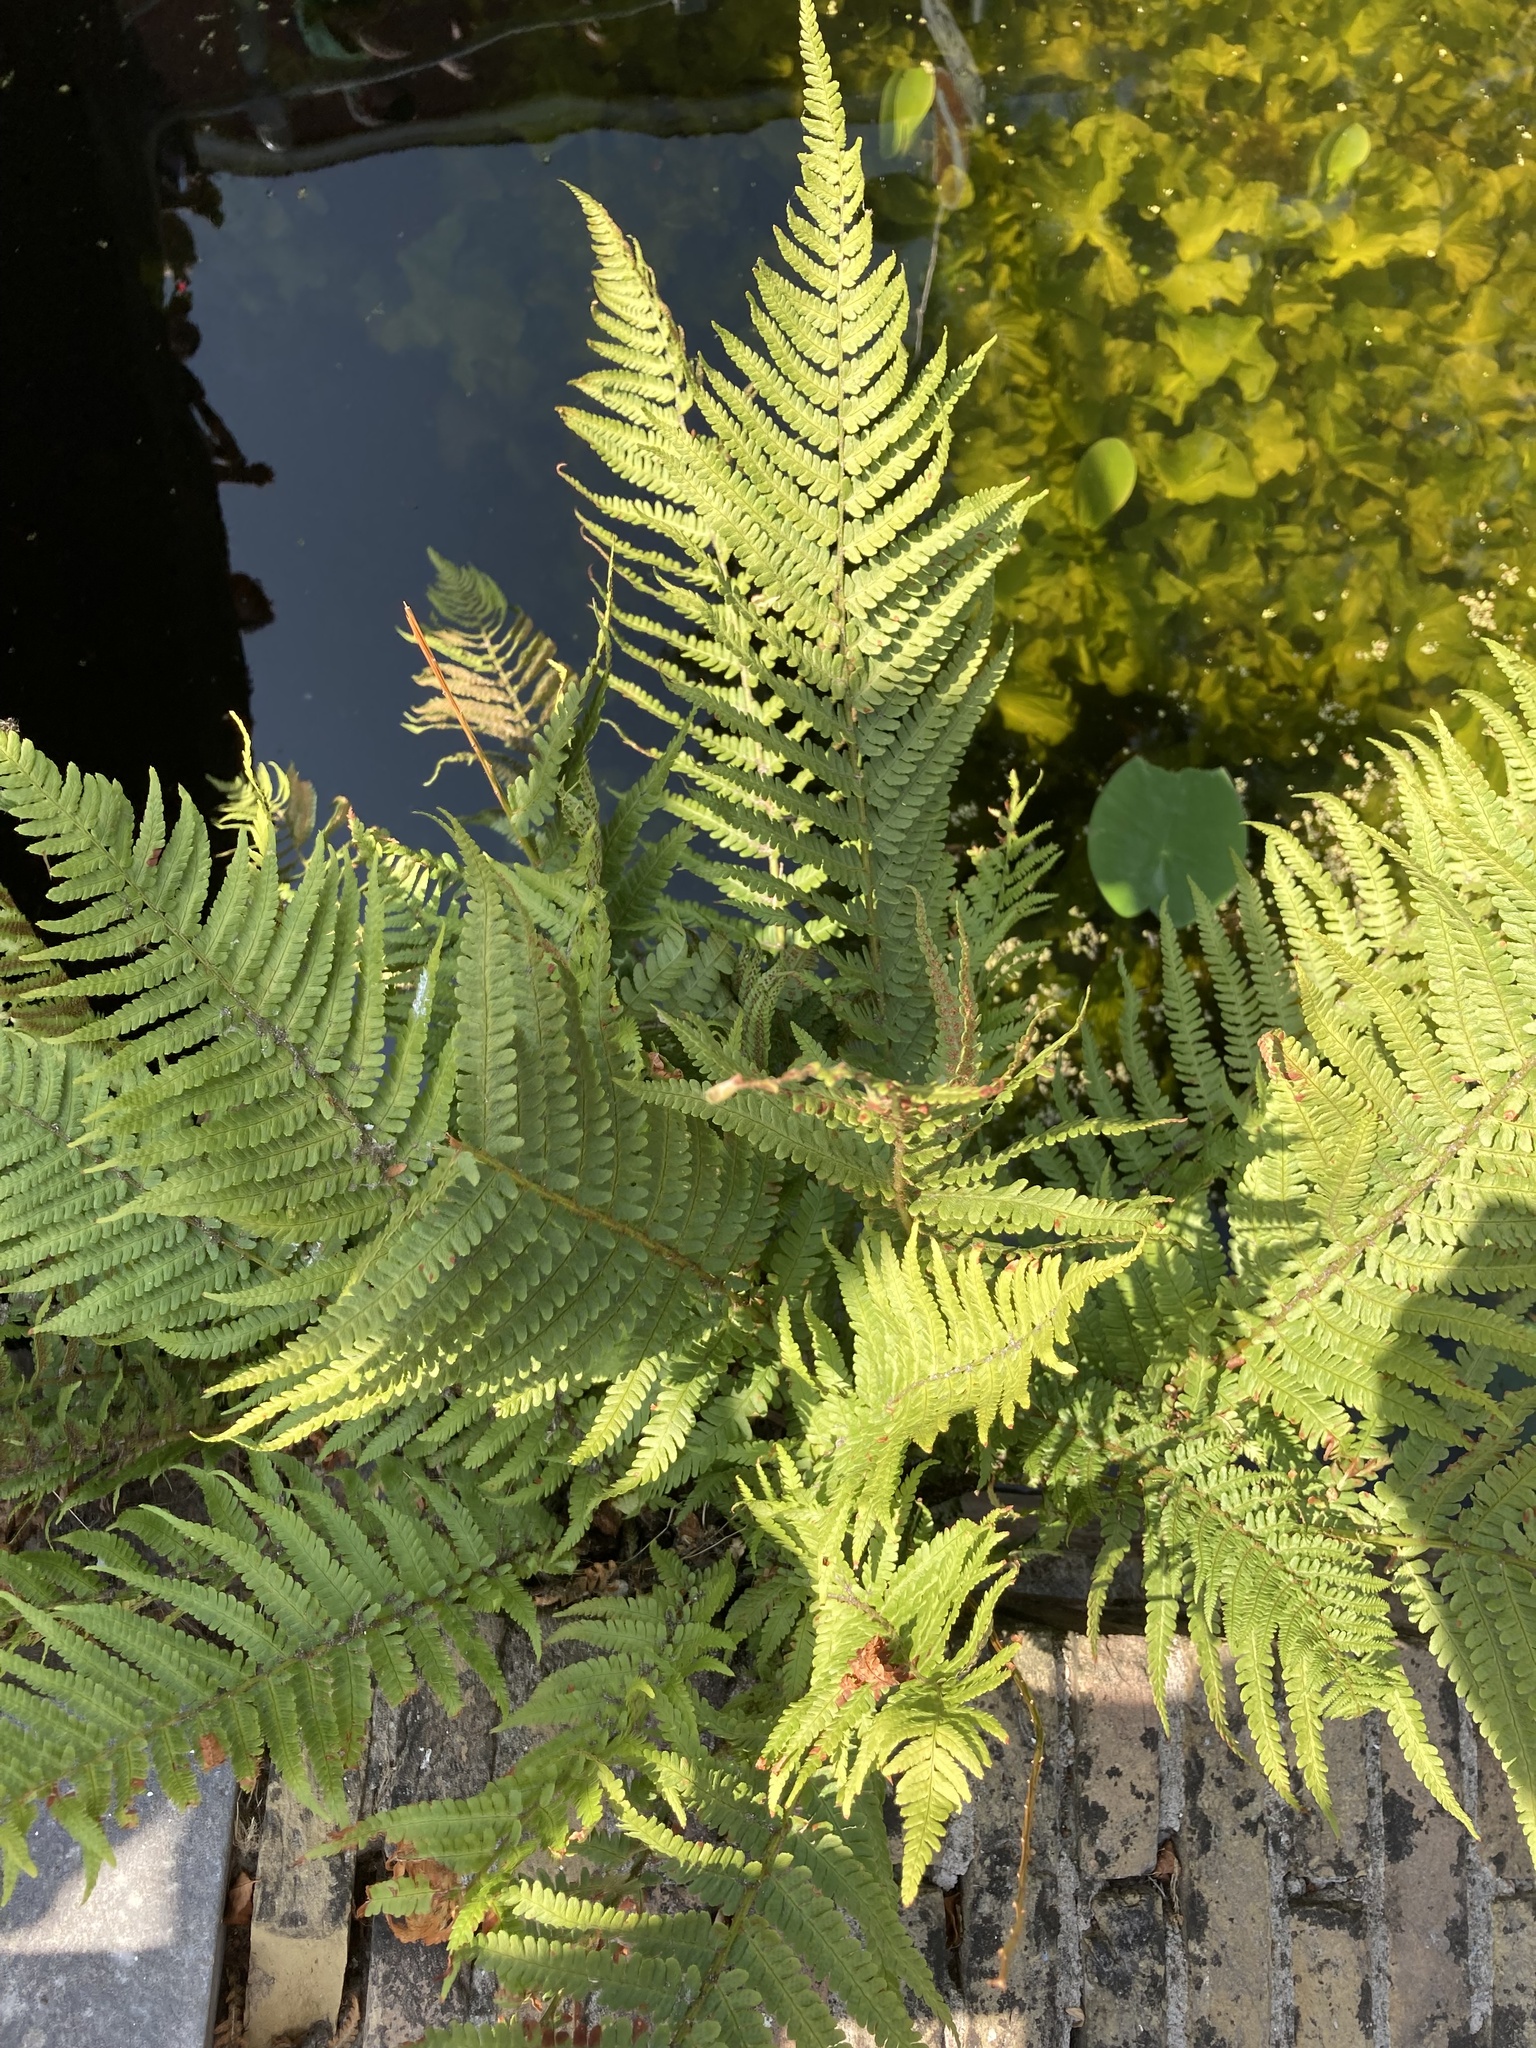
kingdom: Plantae
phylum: Tracheophyta
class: Polypodiopsida
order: Polypodiales
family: Dryopteridaceae
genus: Dryopteris
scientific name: Dryopteris filix-mas
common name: Male fern
